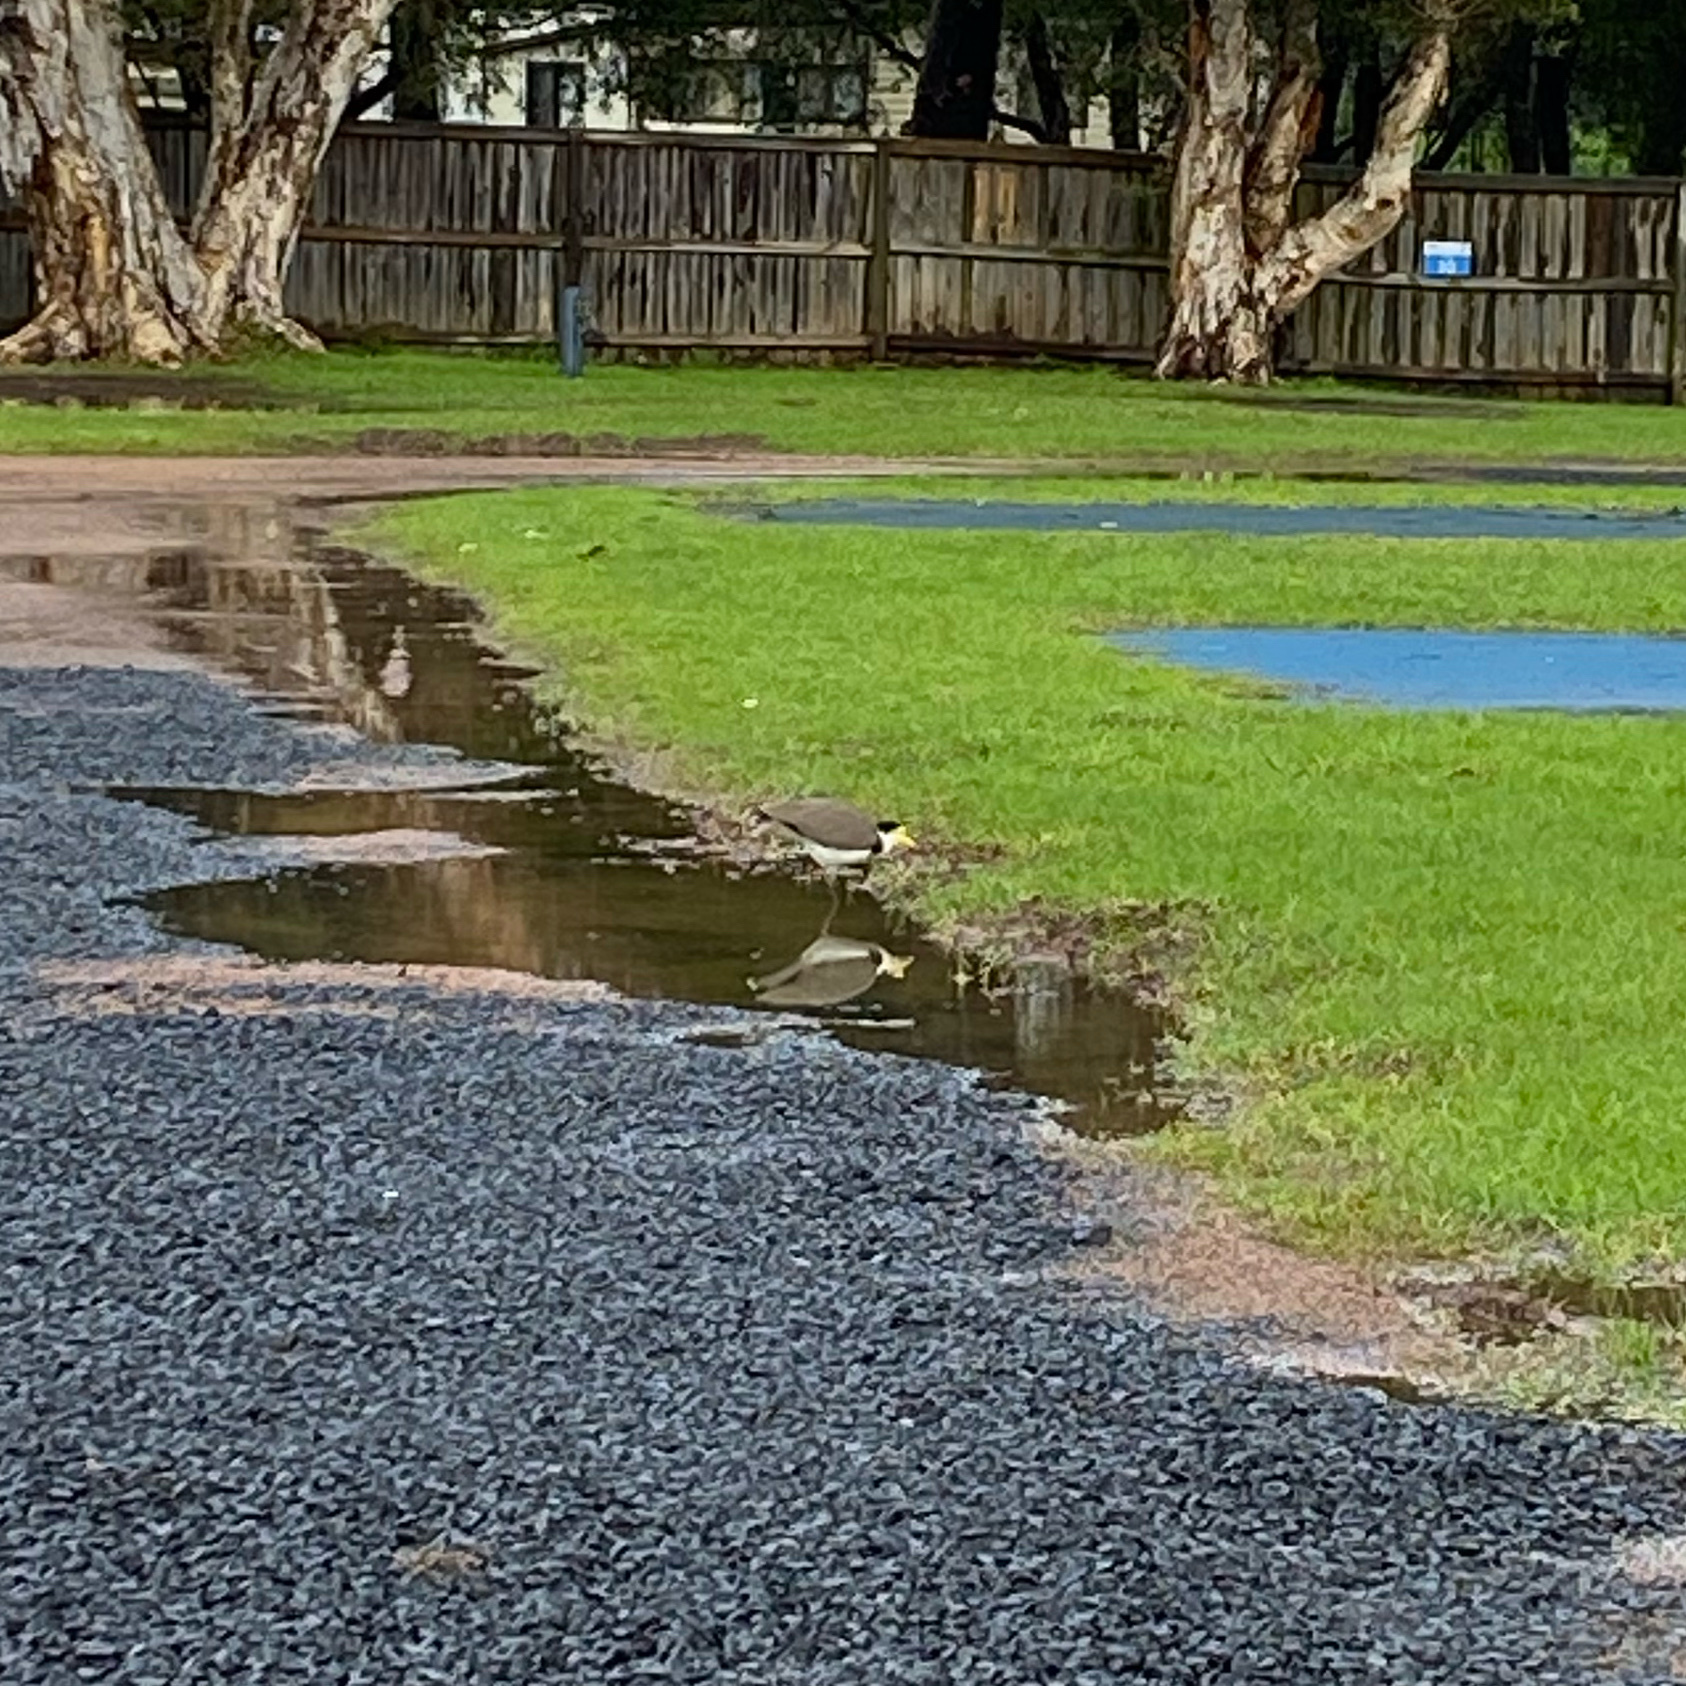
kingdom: Animalia
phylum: Chordata
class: Aves
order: Charadriiformes
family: Charadriidae
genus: Vanellus
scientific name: Vanellus miles
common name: Masked lapwing
